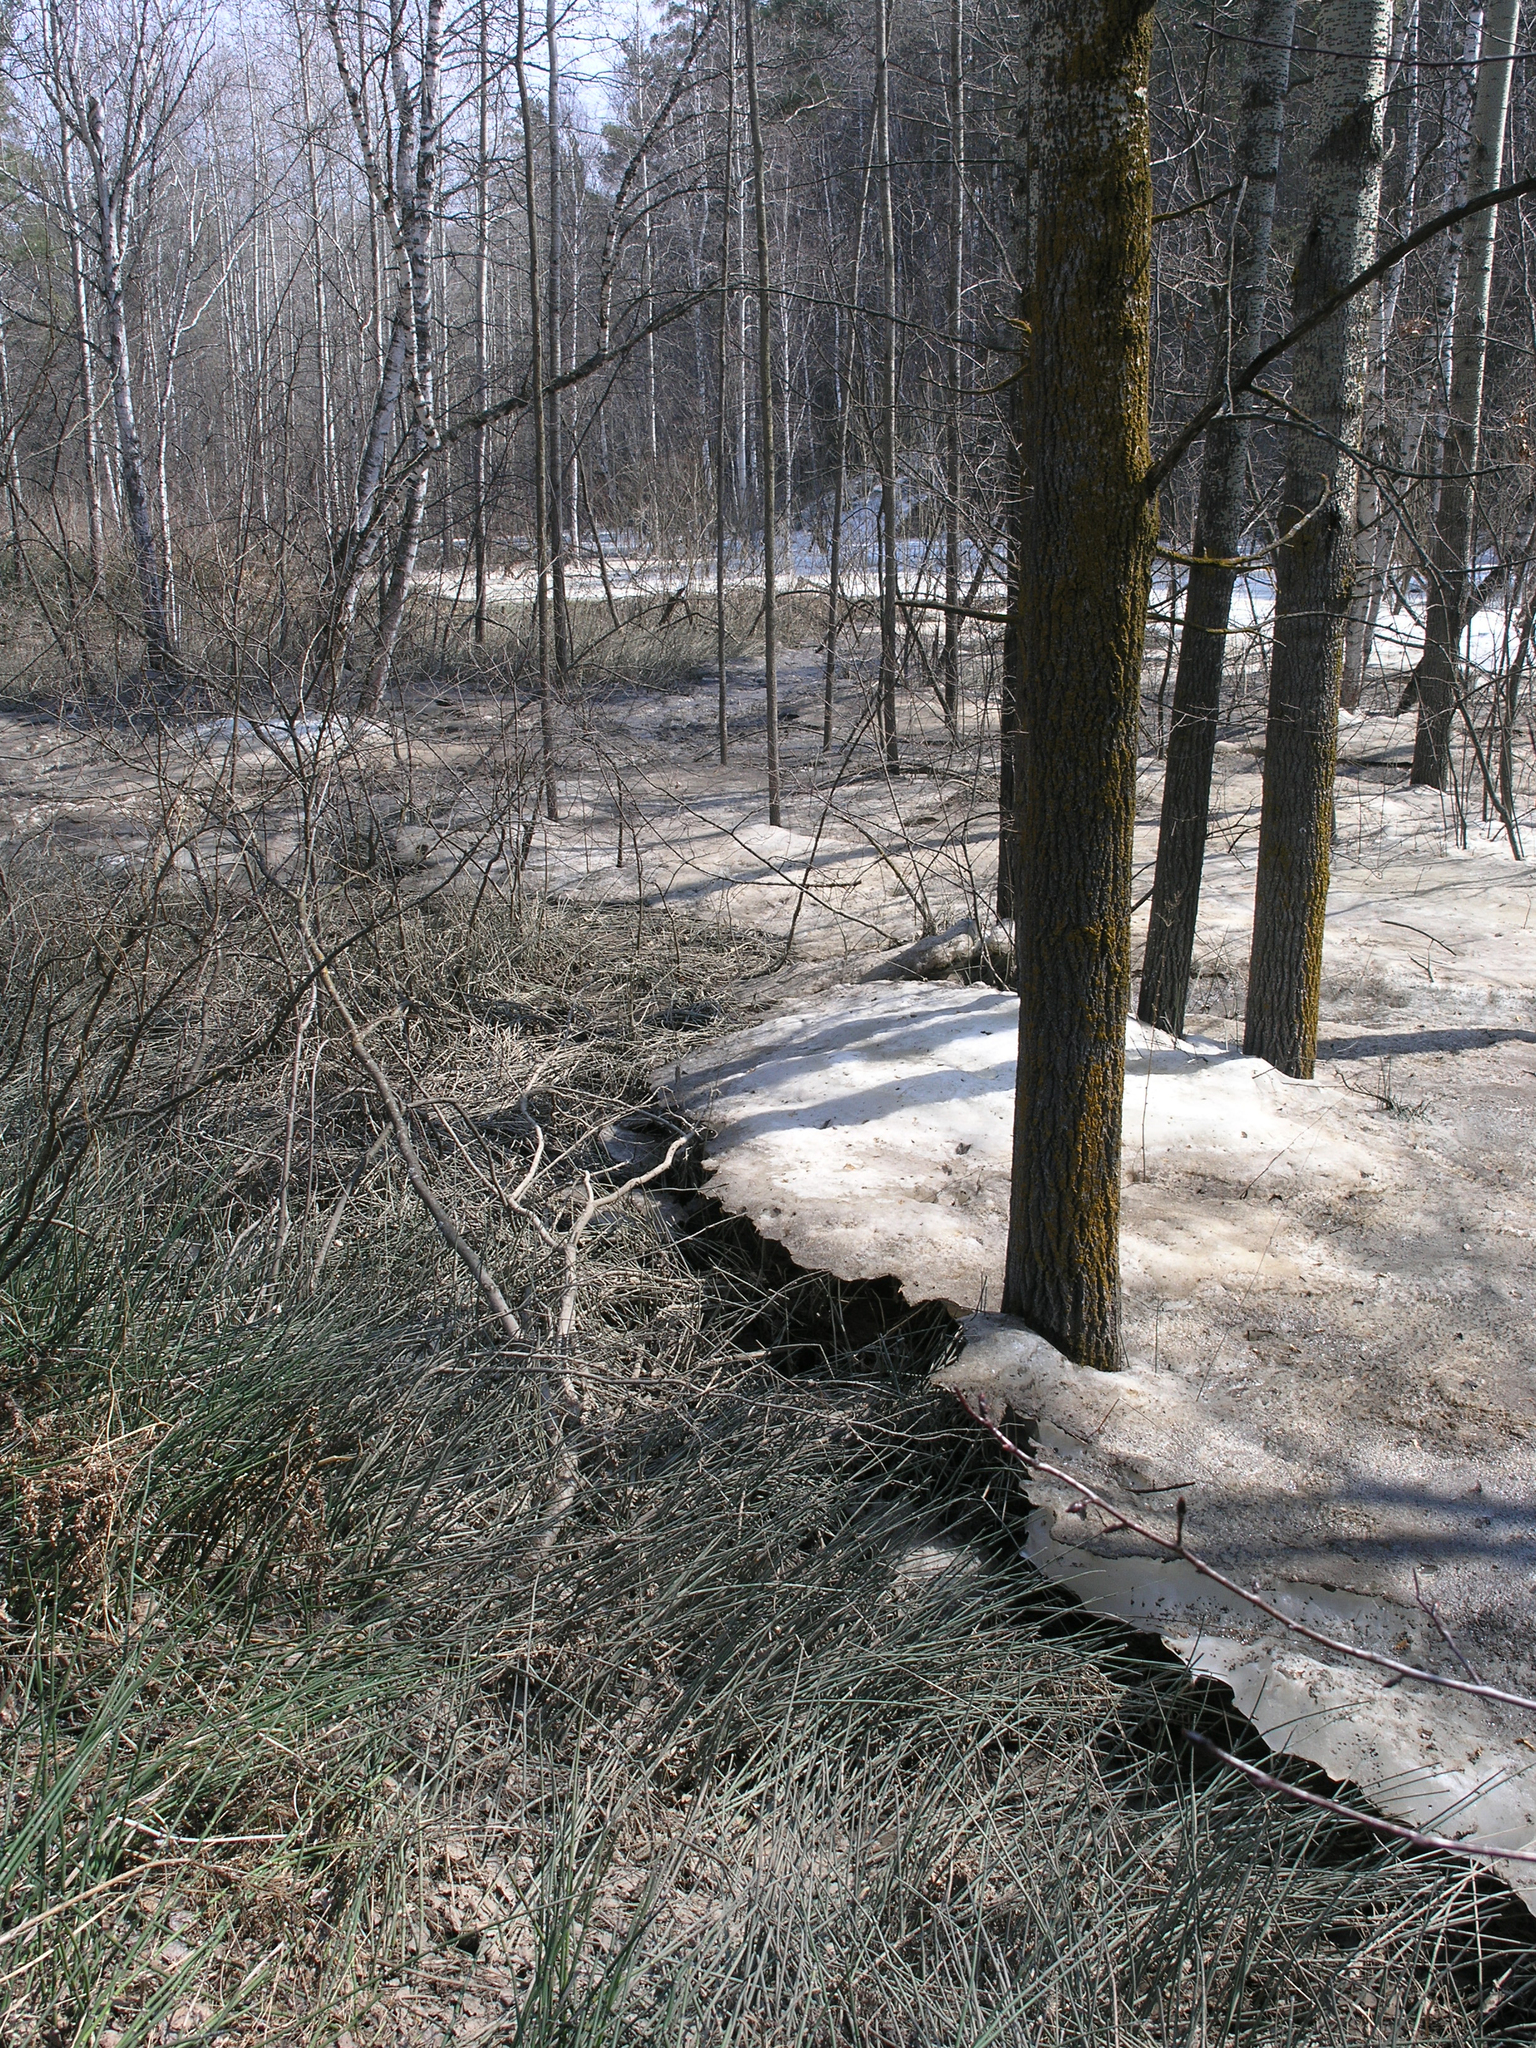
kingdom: Plantae
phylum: Tracheophyta
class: Polypodiopsida
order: Equisetales
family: Equisetaceae
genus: Equisetum
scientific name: Equisetum hyemale
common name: Rough horsetail
